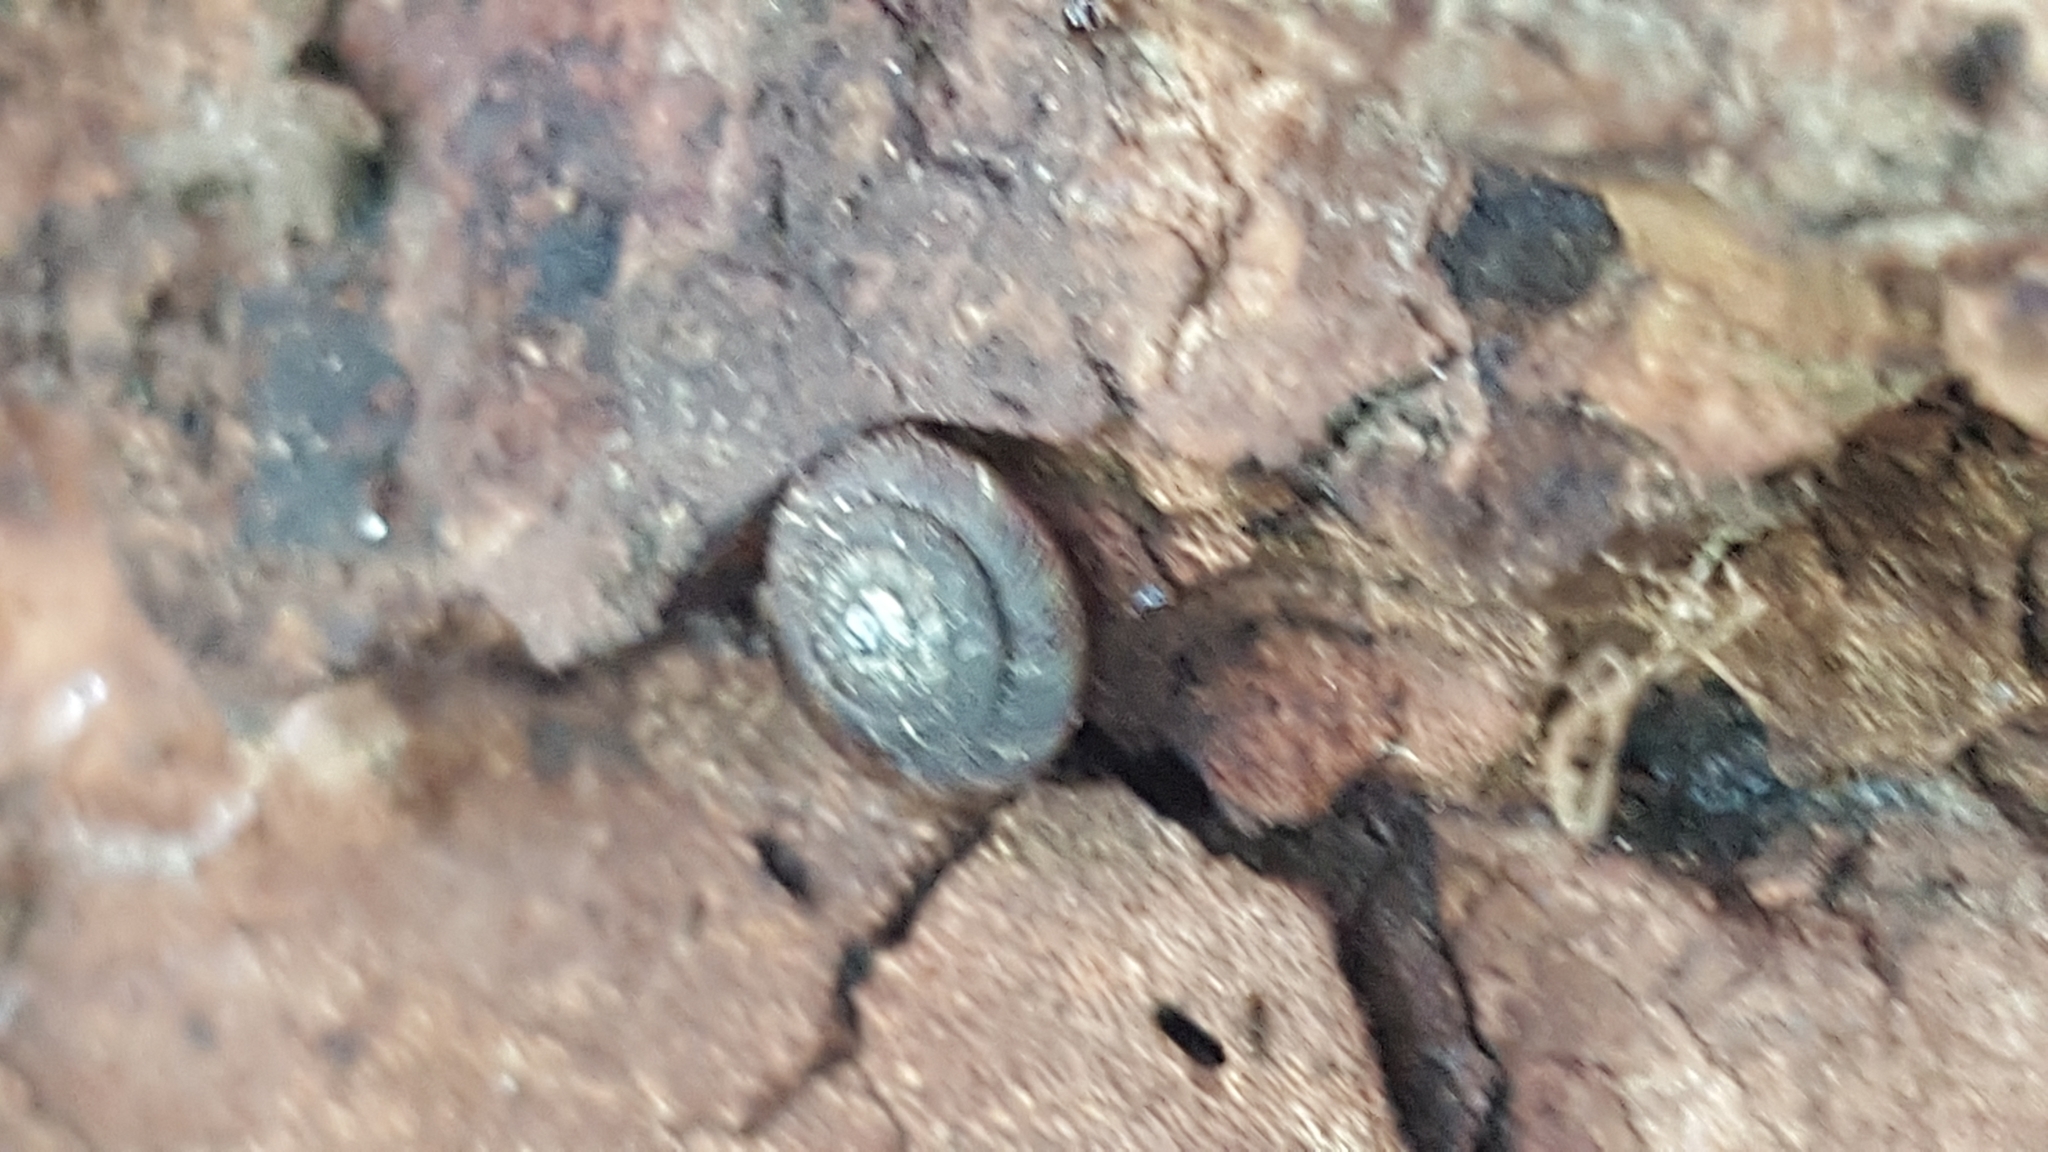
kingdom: Animalia
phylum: Mollusca
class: Gastropoda
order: Stylommatophora
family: Discidae
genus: Discus
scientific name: Discus rotundatus
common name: Rounded snail
